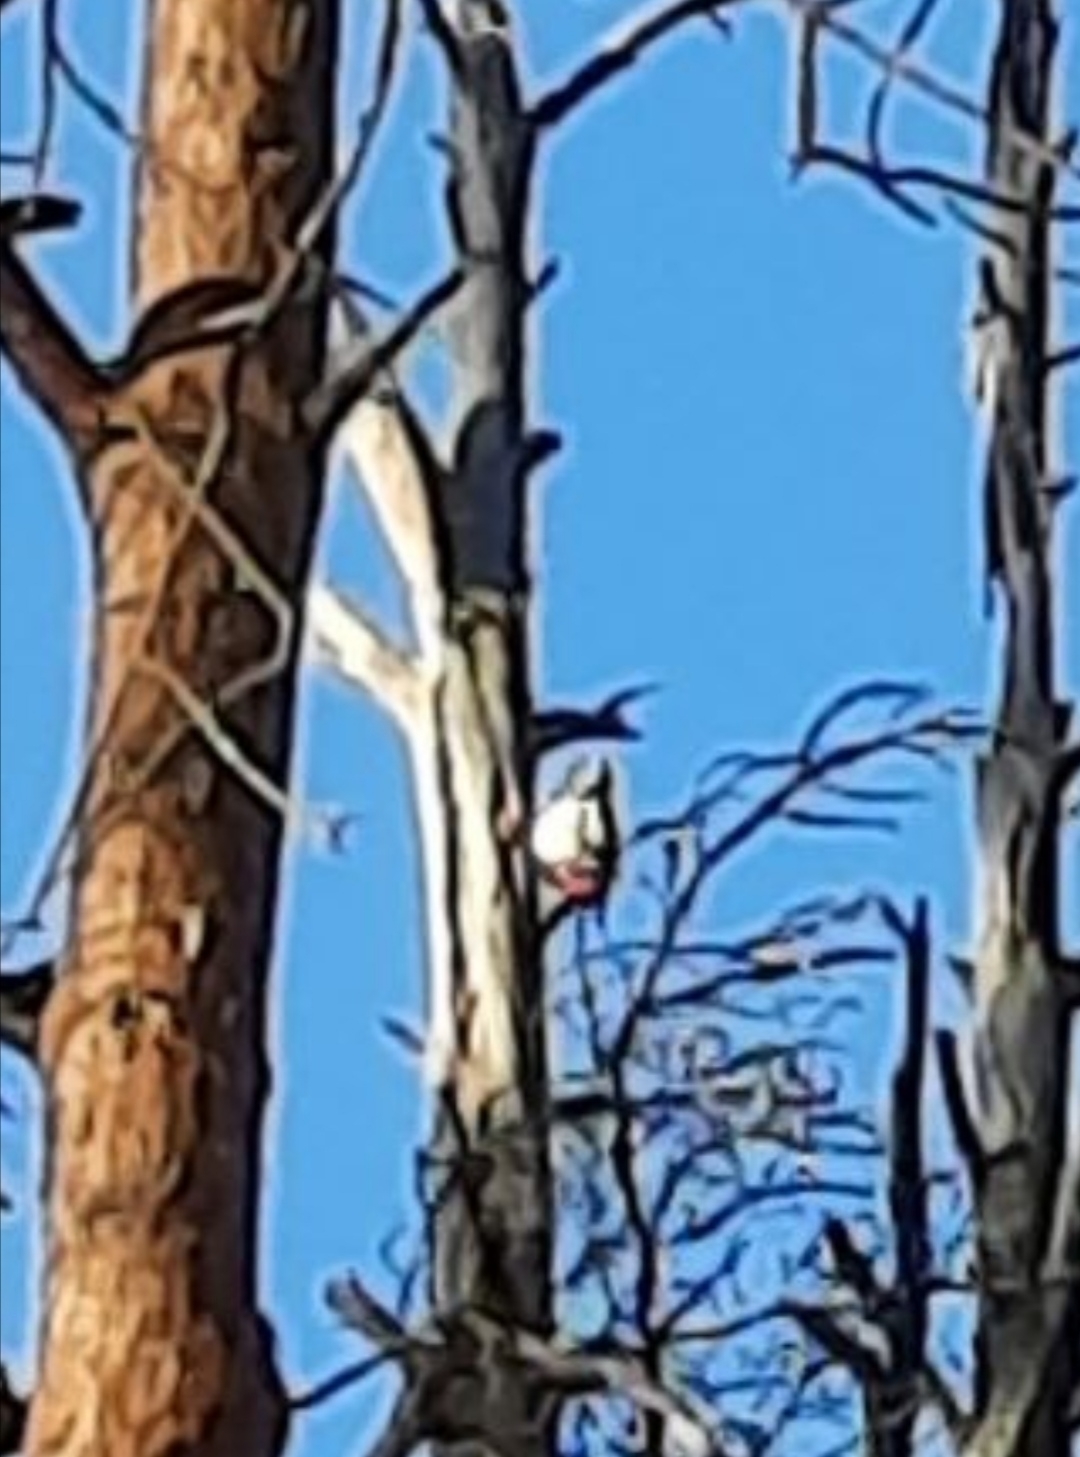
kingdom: Animalia
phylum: Chordata
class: Aves
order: Piciformes
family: Picidae
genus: Dendrocopos
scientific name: Dendrocopos major
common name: Great spotted woodpecker
